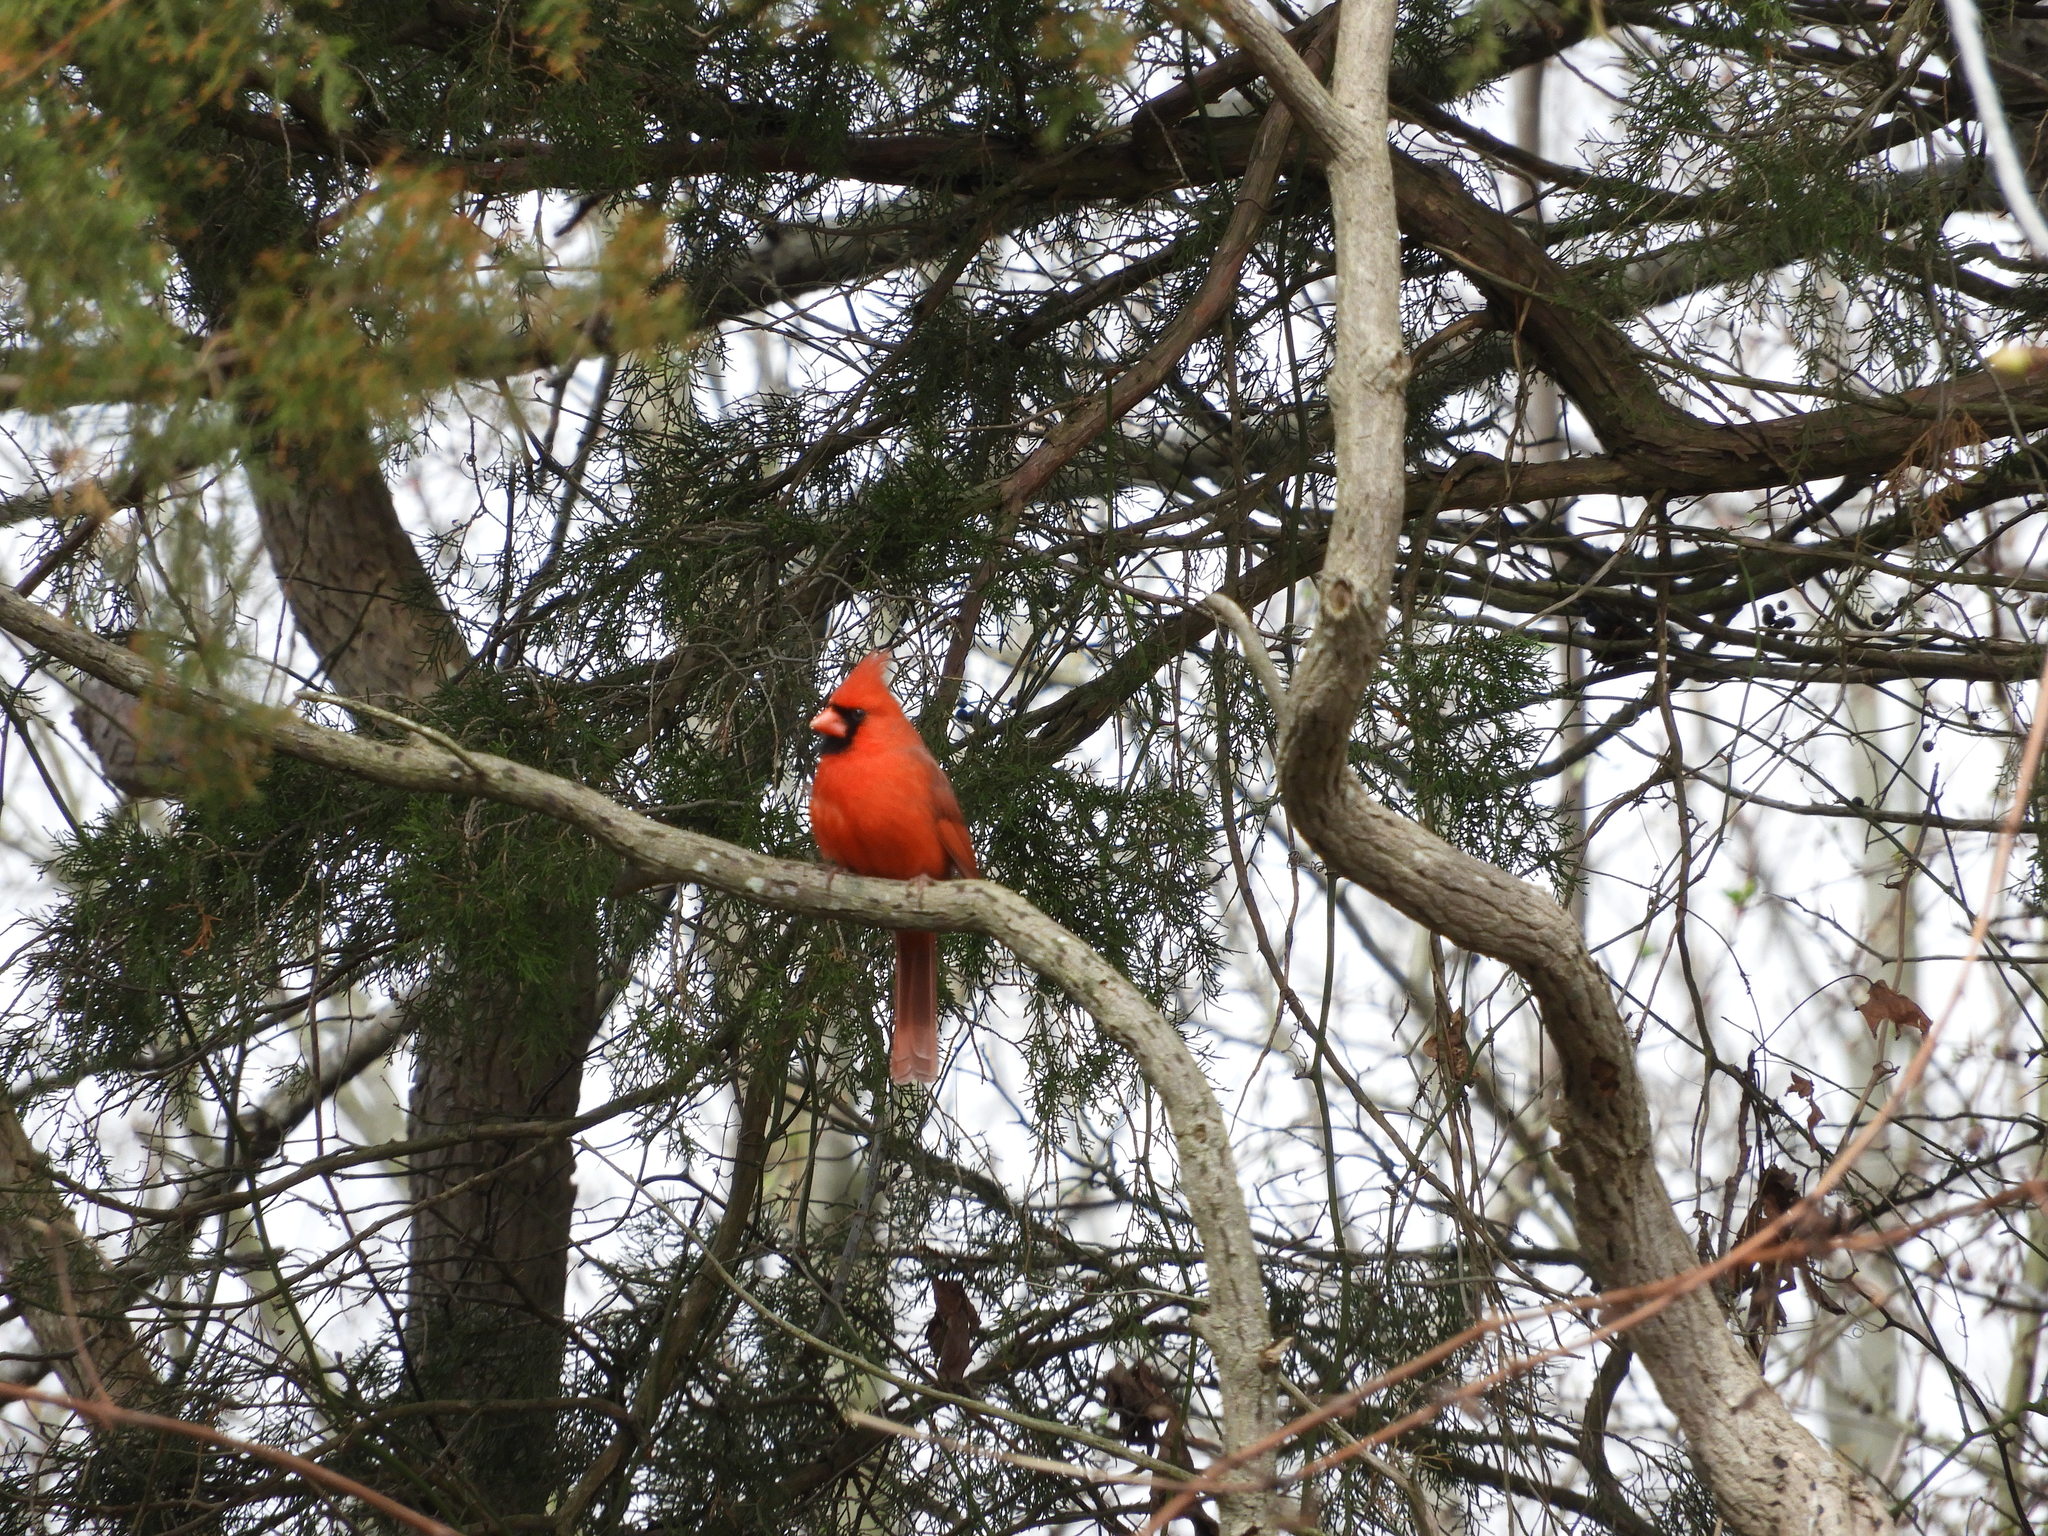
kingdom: Animalia
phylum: Chordata
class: Aves
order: Passeriformes
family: Cardinalidae
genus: Cardinalis
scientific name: Cardinalis cardinalis
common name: Northern cardinal
